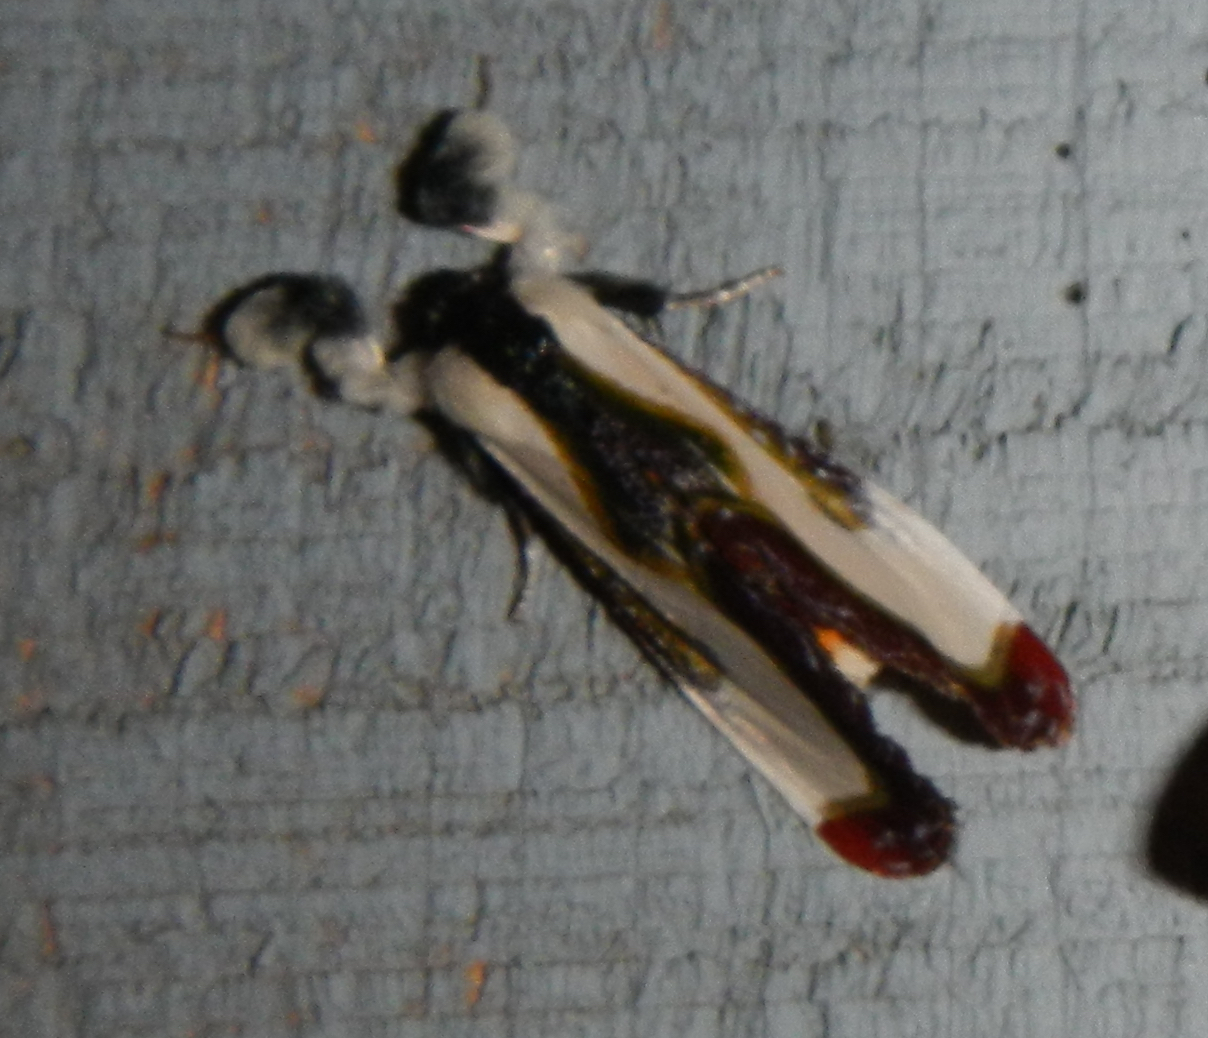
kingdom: Animalia
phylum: Arthropoda
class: Insecta
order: Lepidoptera
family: Noctuidae
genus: Eudryas
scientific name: Eudryas grata
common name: Beautiful wood-nymph
